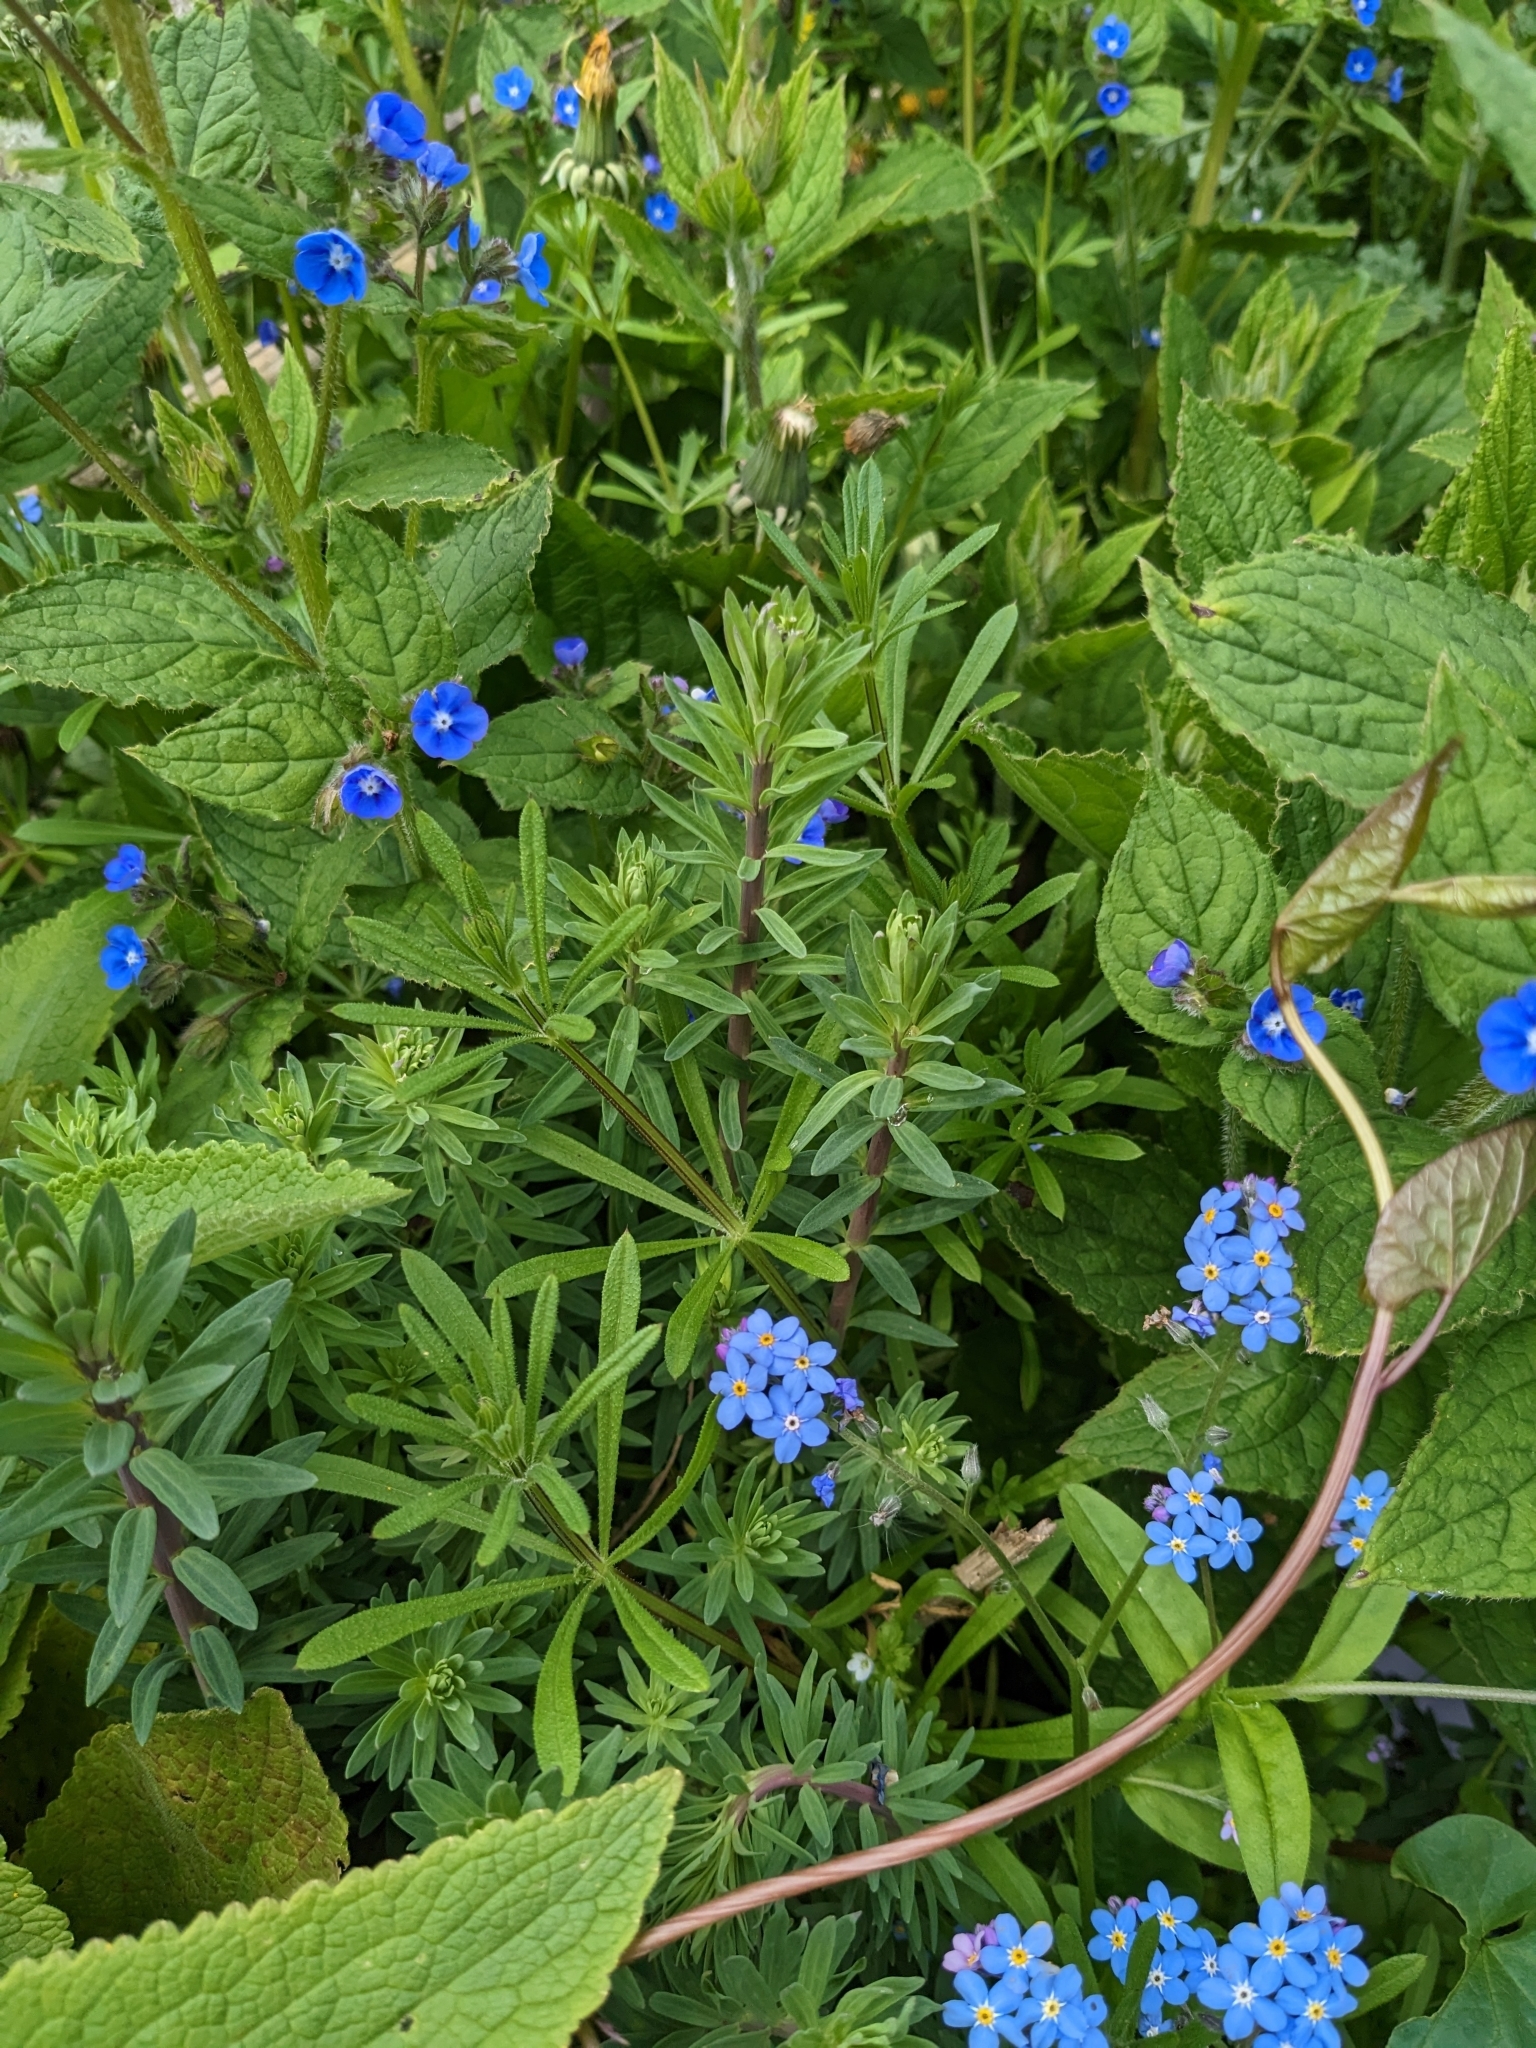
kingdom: Plantae
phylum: Tracheophyta
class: Magnoliopsida
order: Gentianales
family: Rubiaceae
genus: Galium
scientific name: Galium aparine
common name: Cleavers
